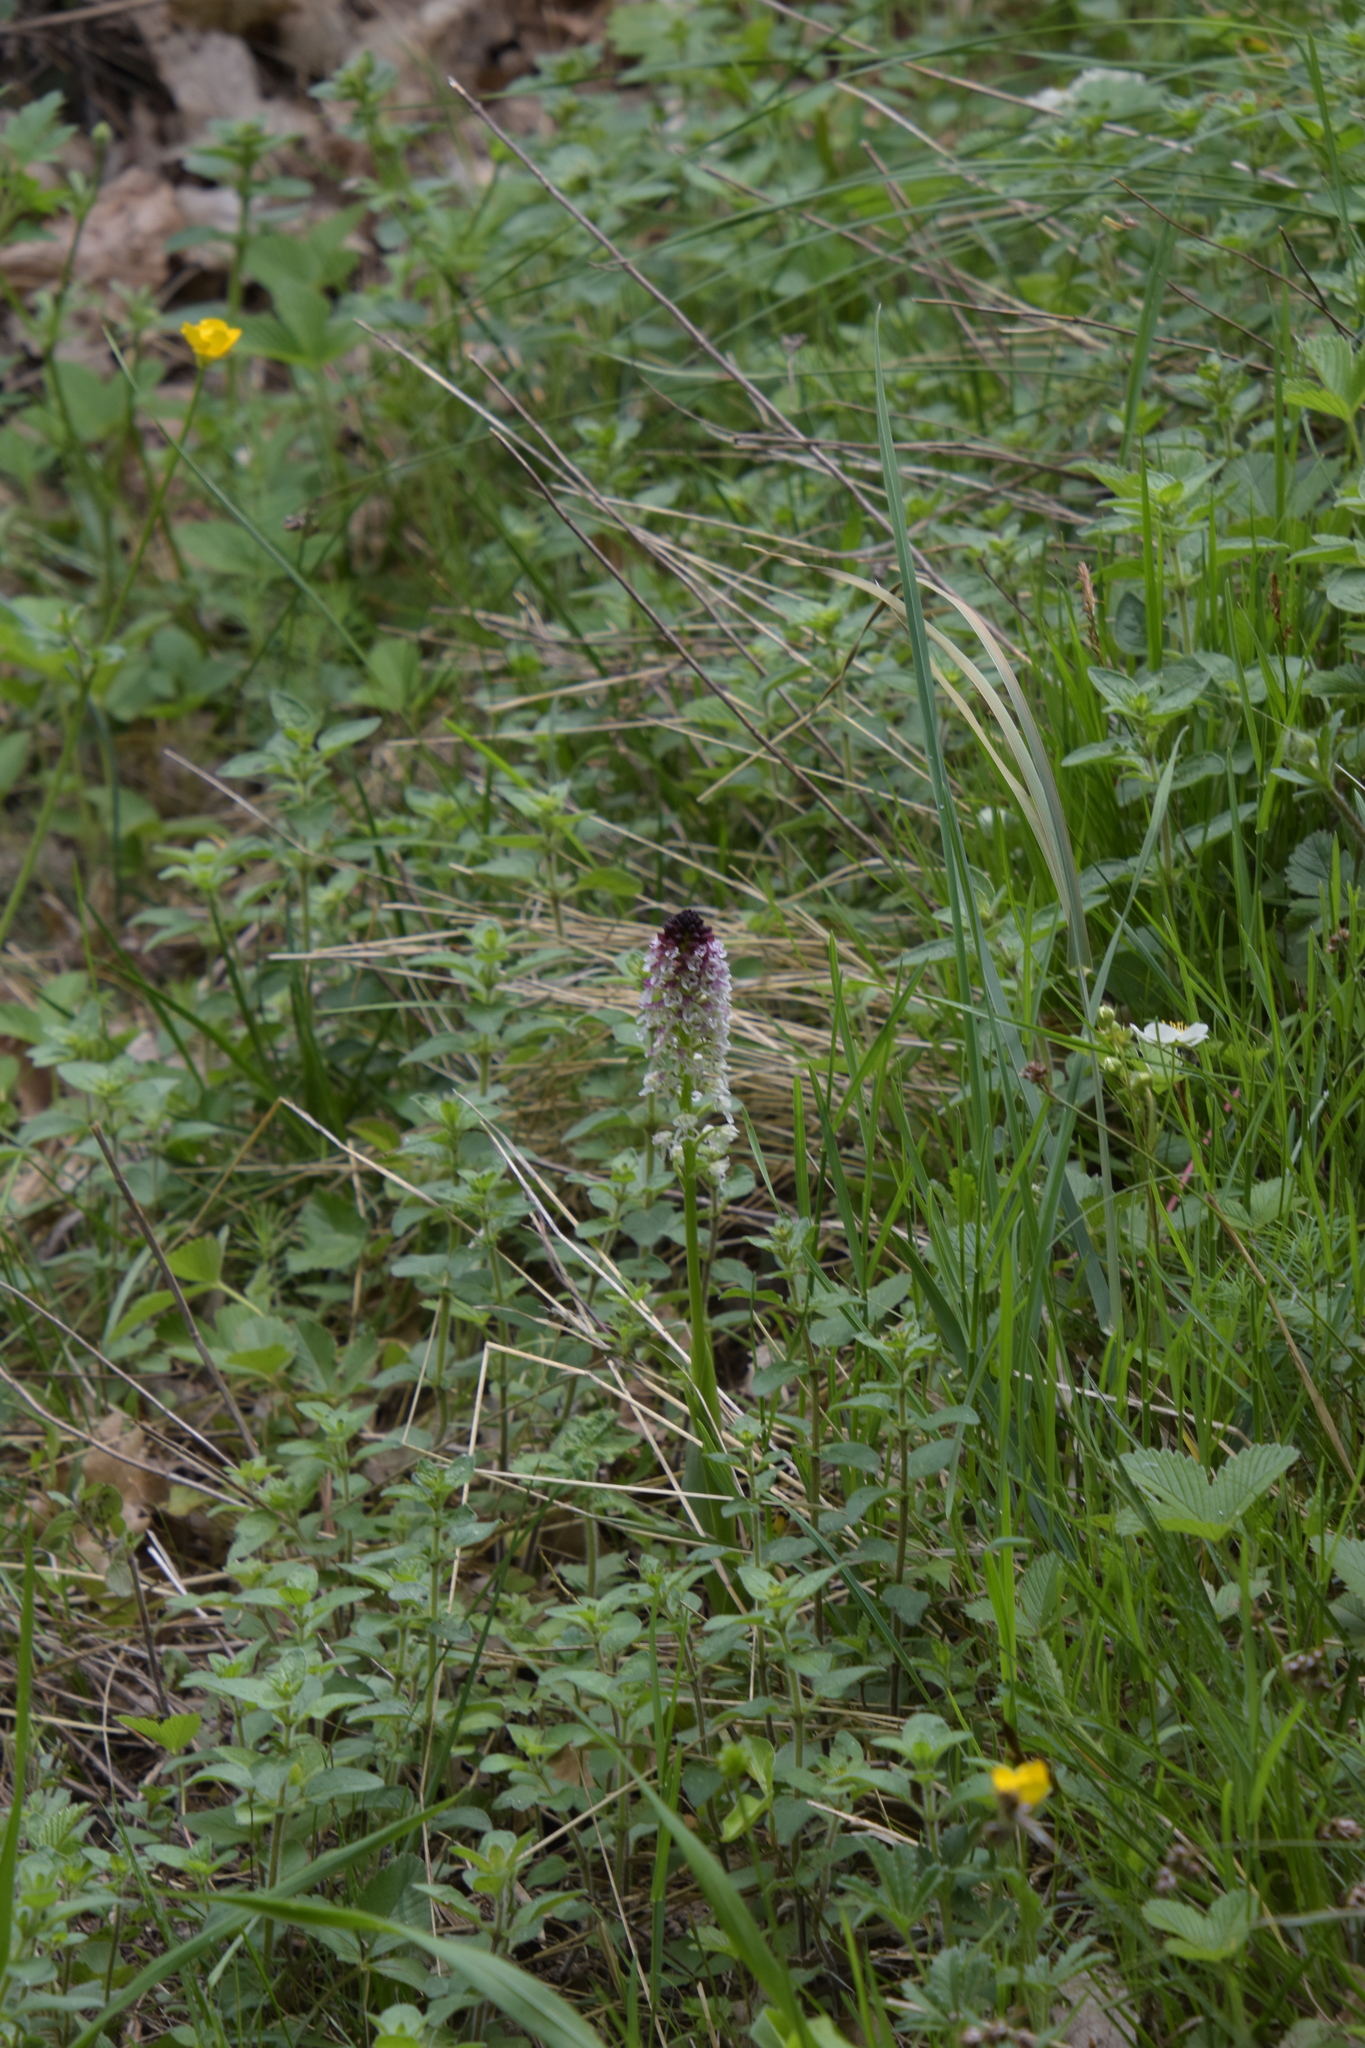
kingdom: Plantae
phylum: Tracheophyta
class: Liliopsida
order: Asparagales
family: Orchidaceae
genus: Neotinea
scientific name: Neotinea ustulata
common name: Burnt orchid
